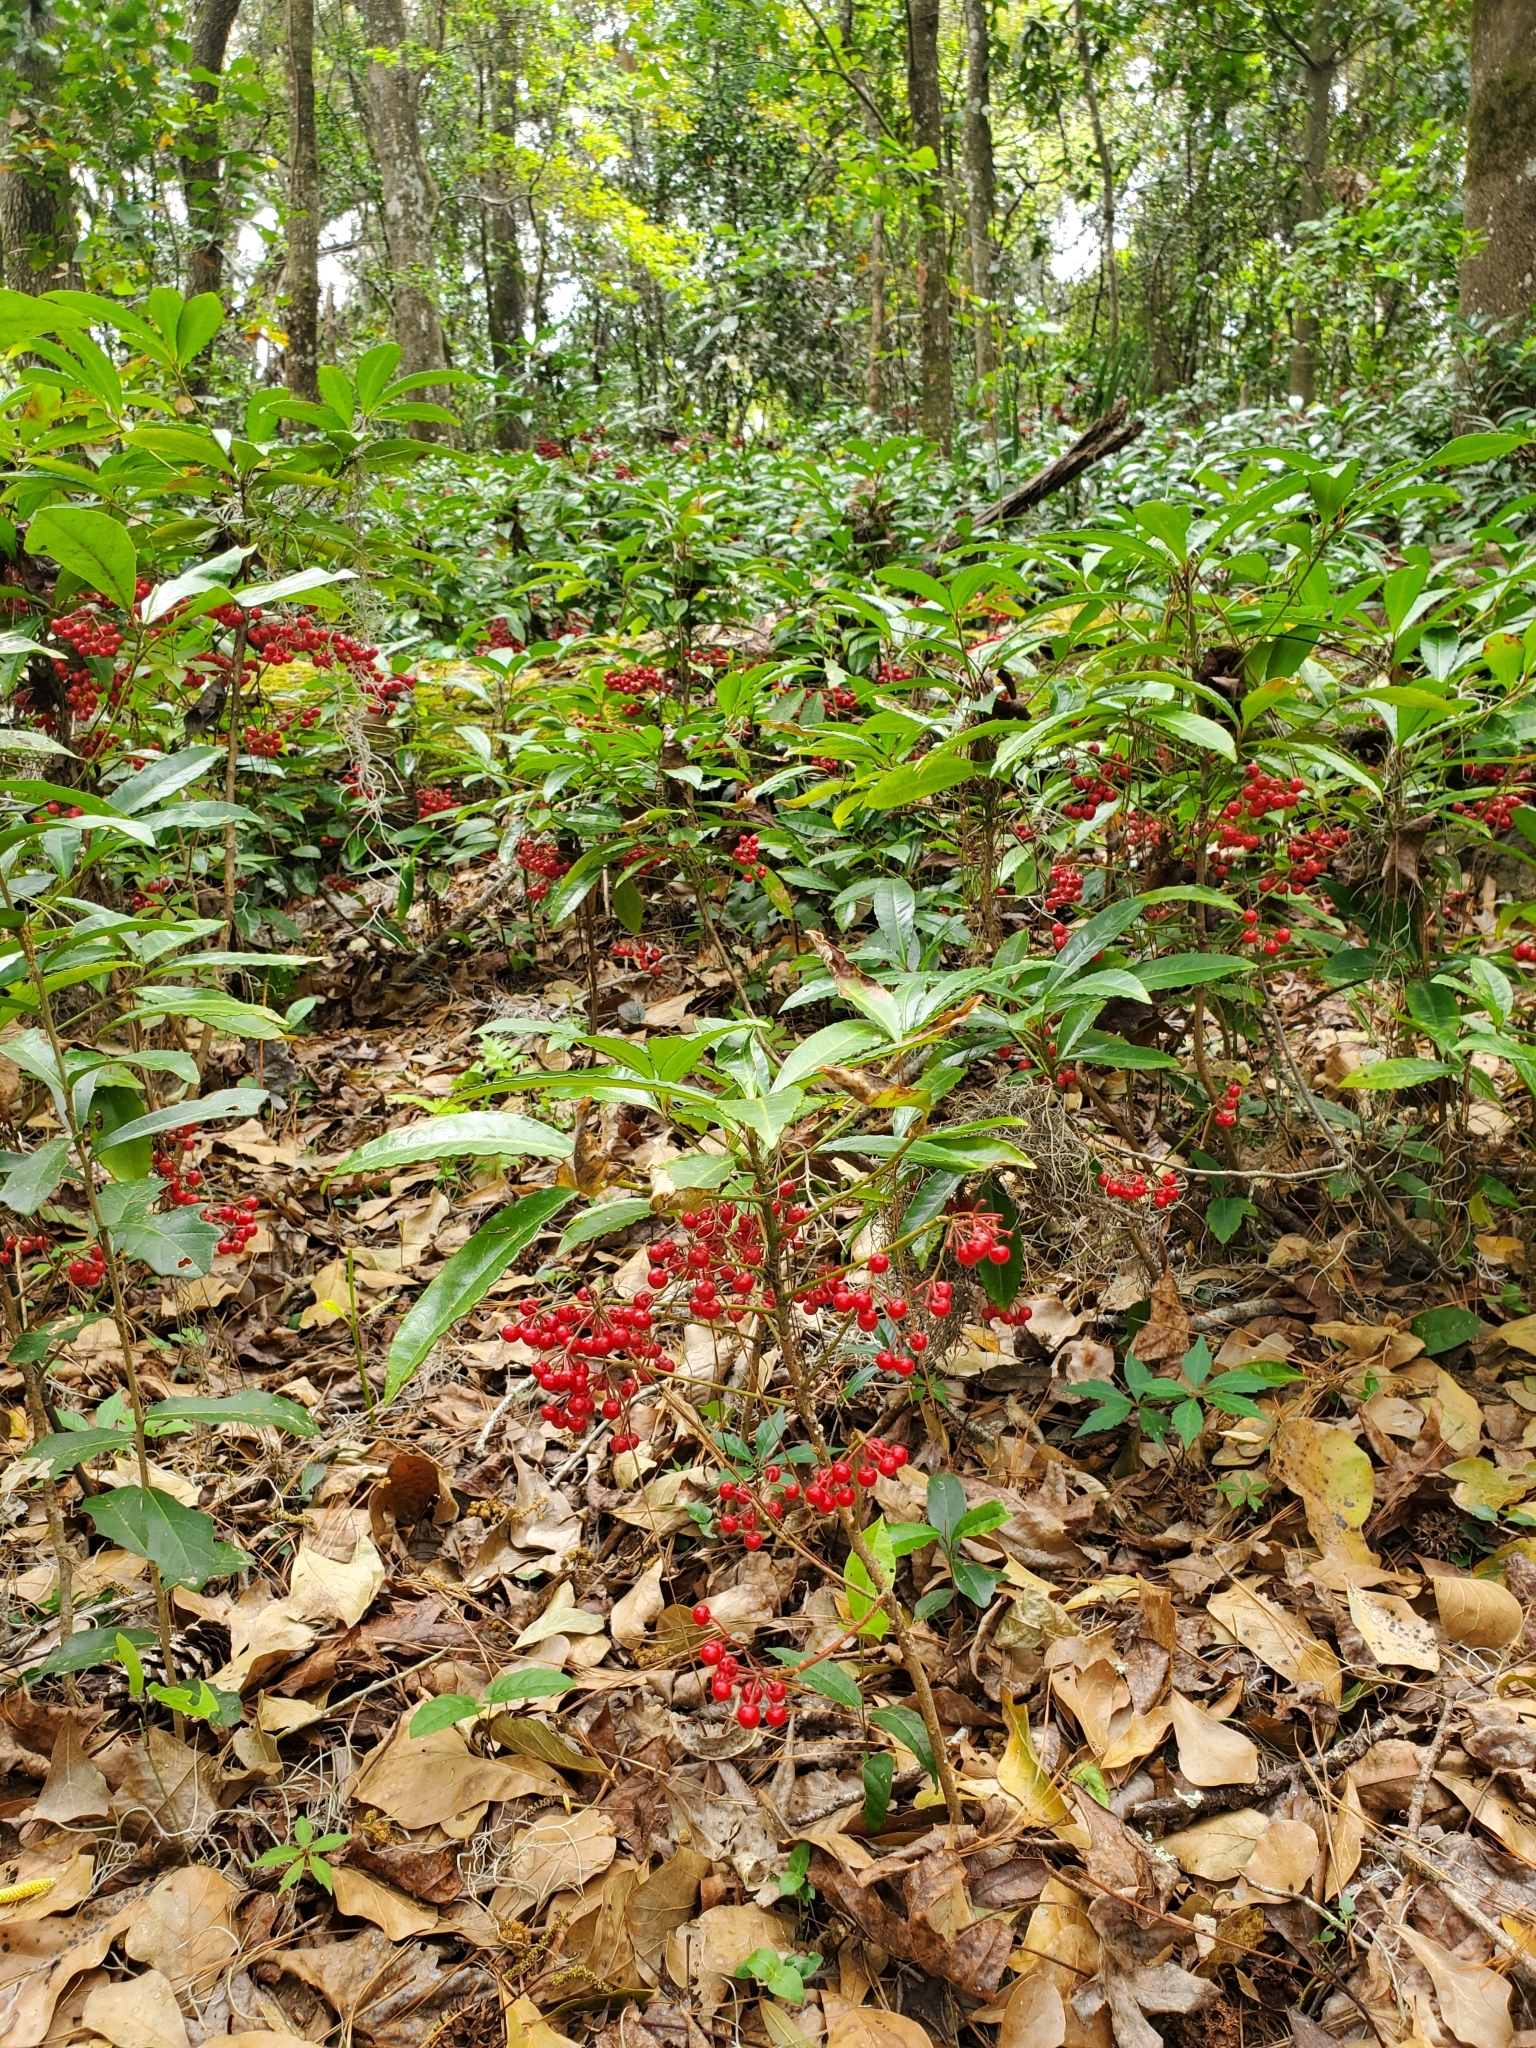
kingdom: Plantae
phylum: Tracheophyta
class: Magnoliopsida
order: Ericales
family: Primulaceae
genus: Ardisia
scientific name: Ardisia crenata
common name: Hen's eyes
